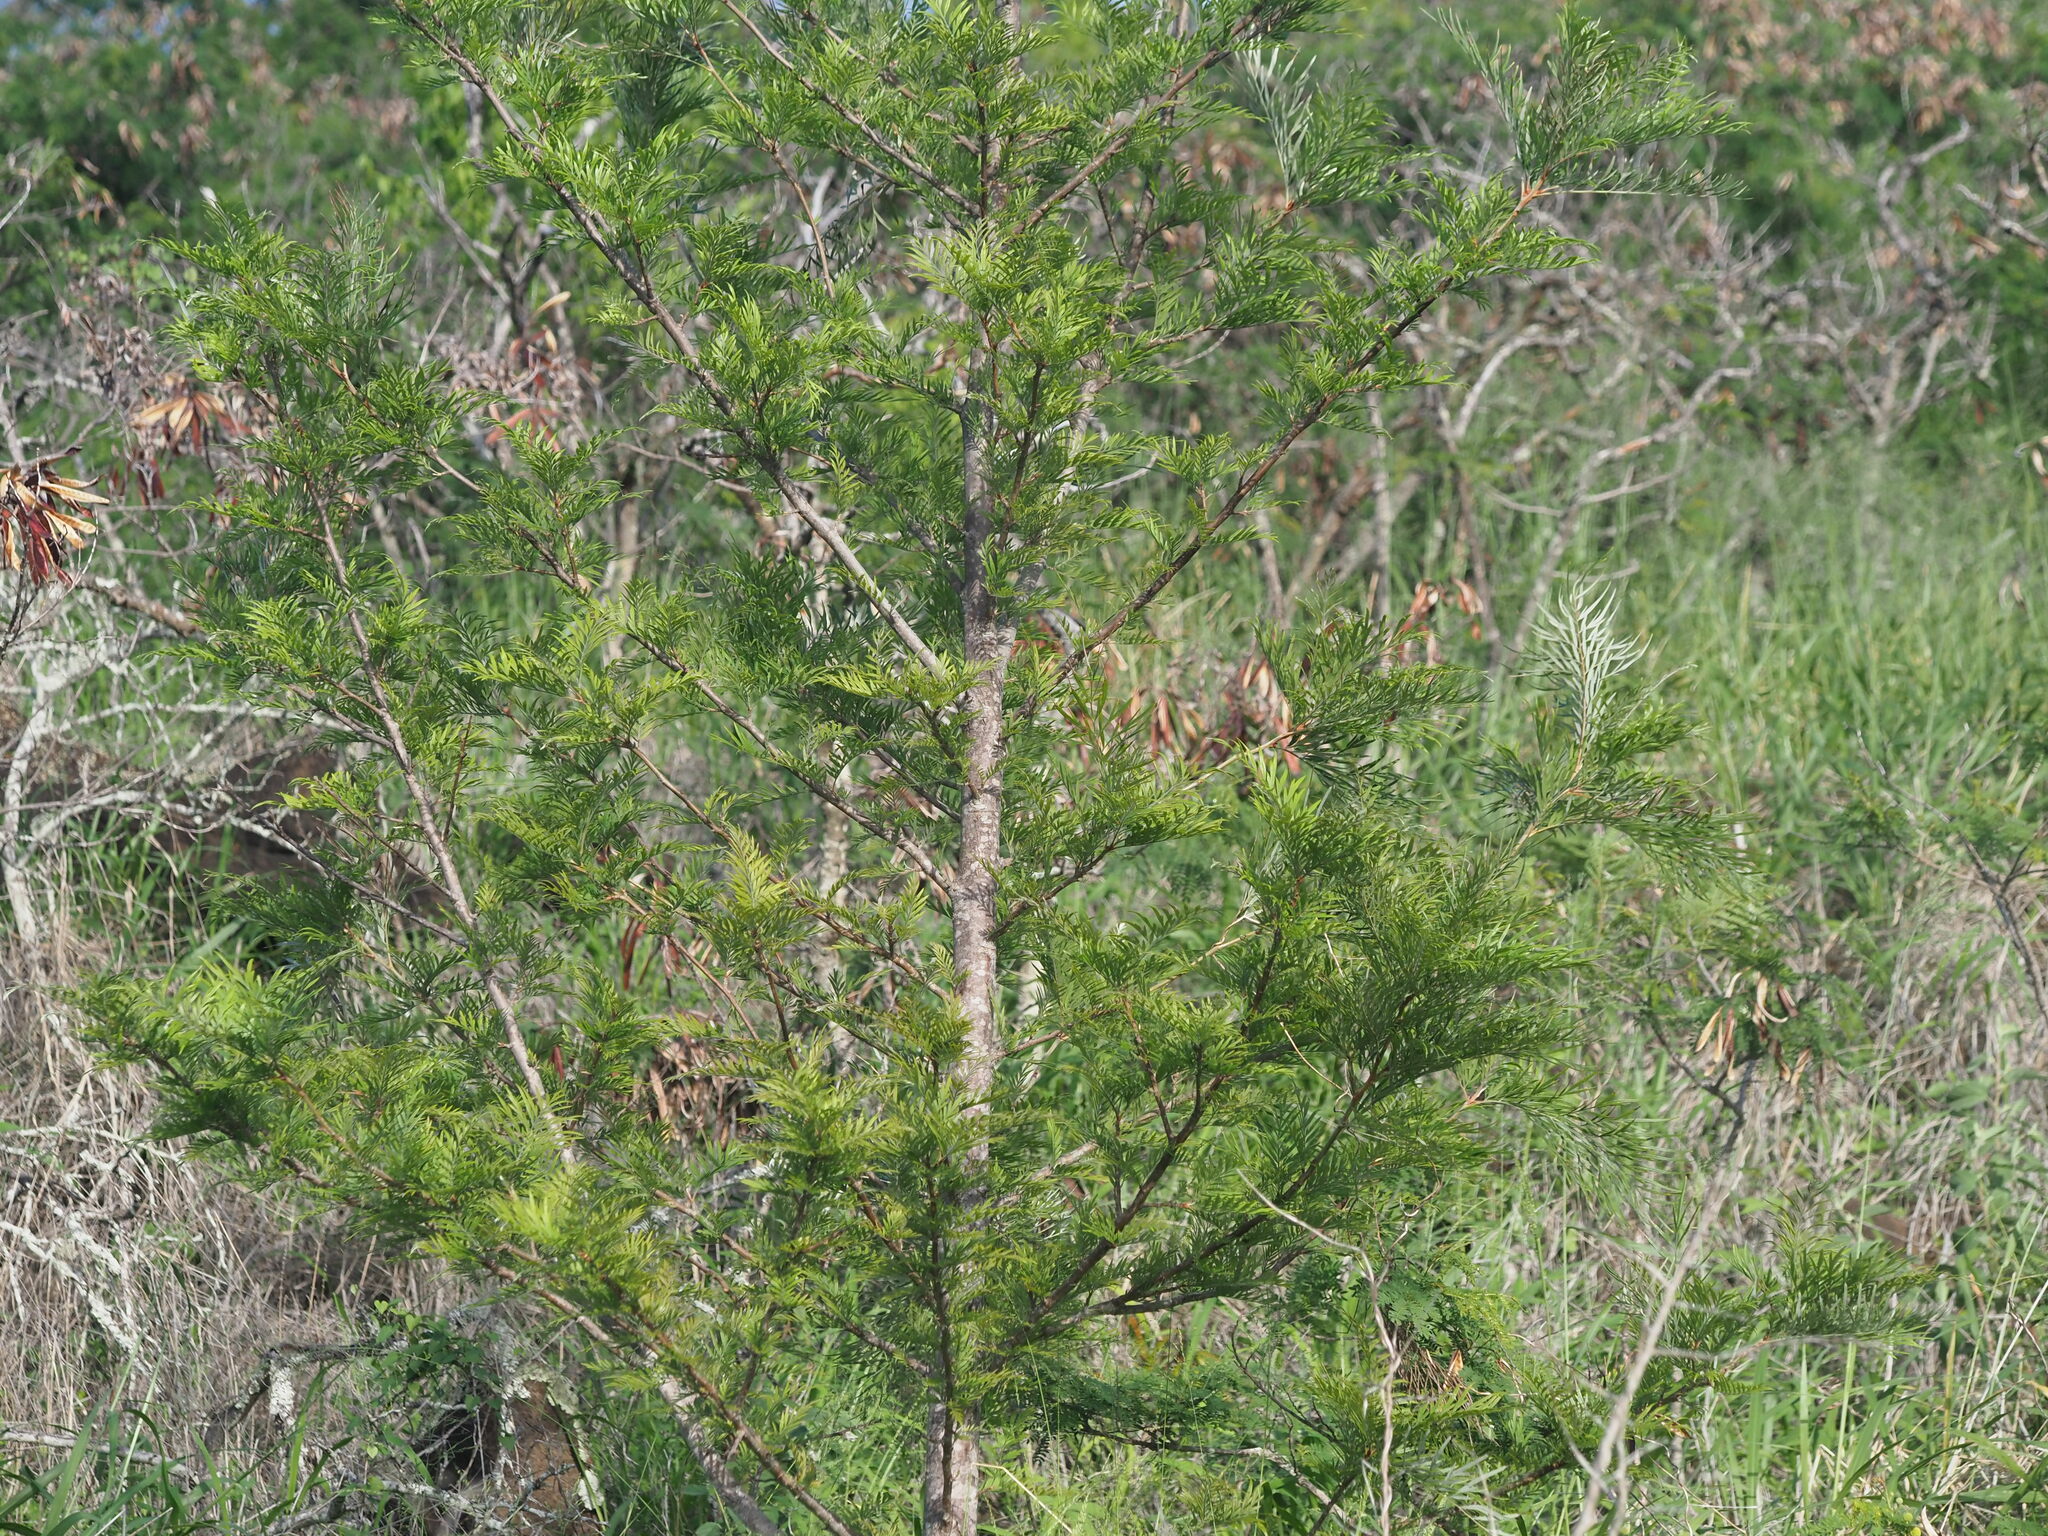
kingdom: Plantae
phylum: Tracheophyta
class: Magnoliopsida
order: Proteales
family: Proteaceae
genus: Grevillea
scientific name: Grevillea robusta
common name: Silkoak
